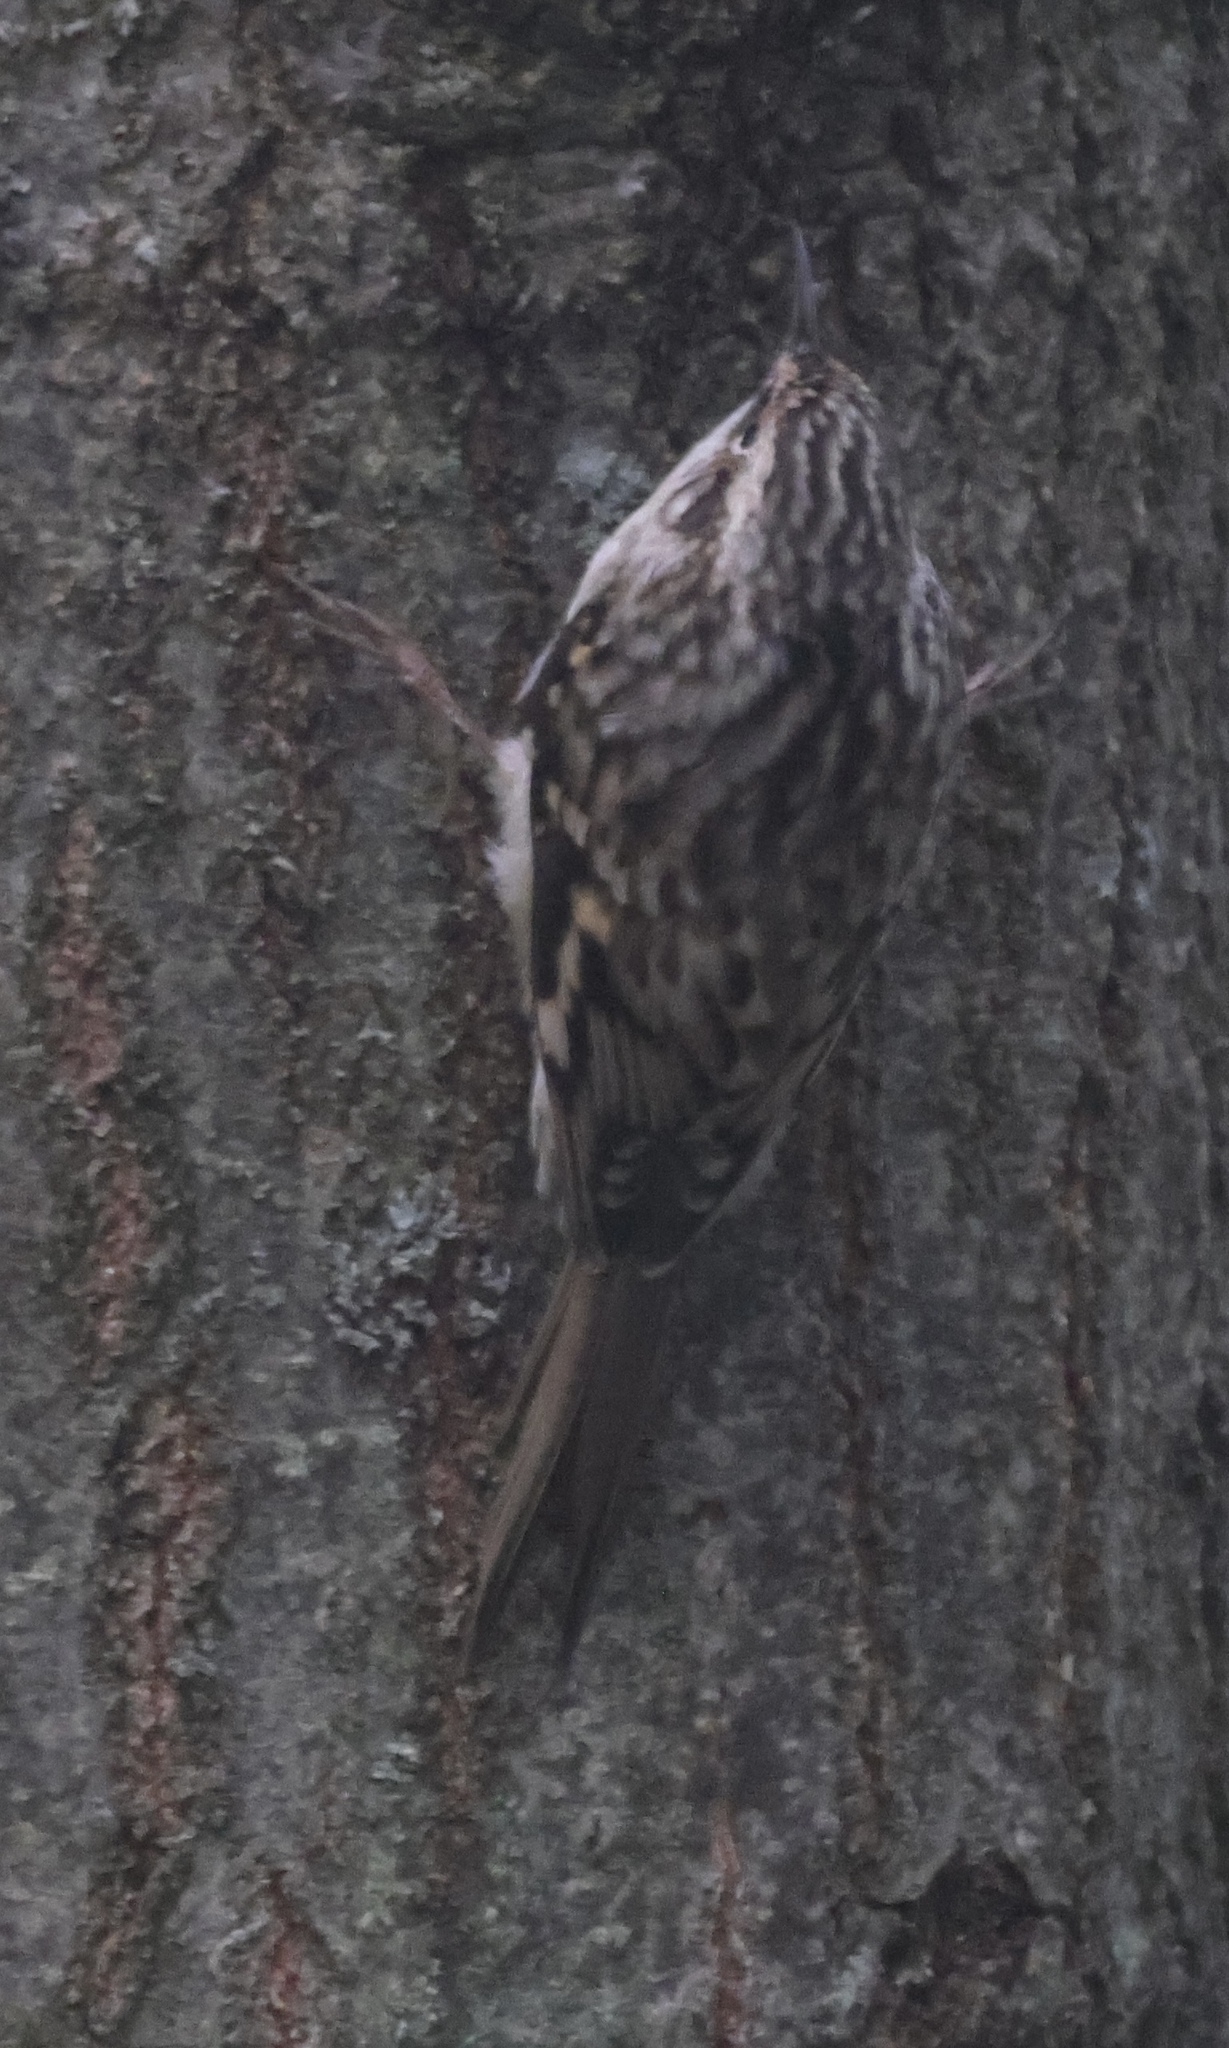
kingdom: Animalia
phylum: Chordata
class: Aves
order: Passeriformes
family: Certhiidae
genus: Certhia
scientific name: Certhia americana
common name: Brown creeper
